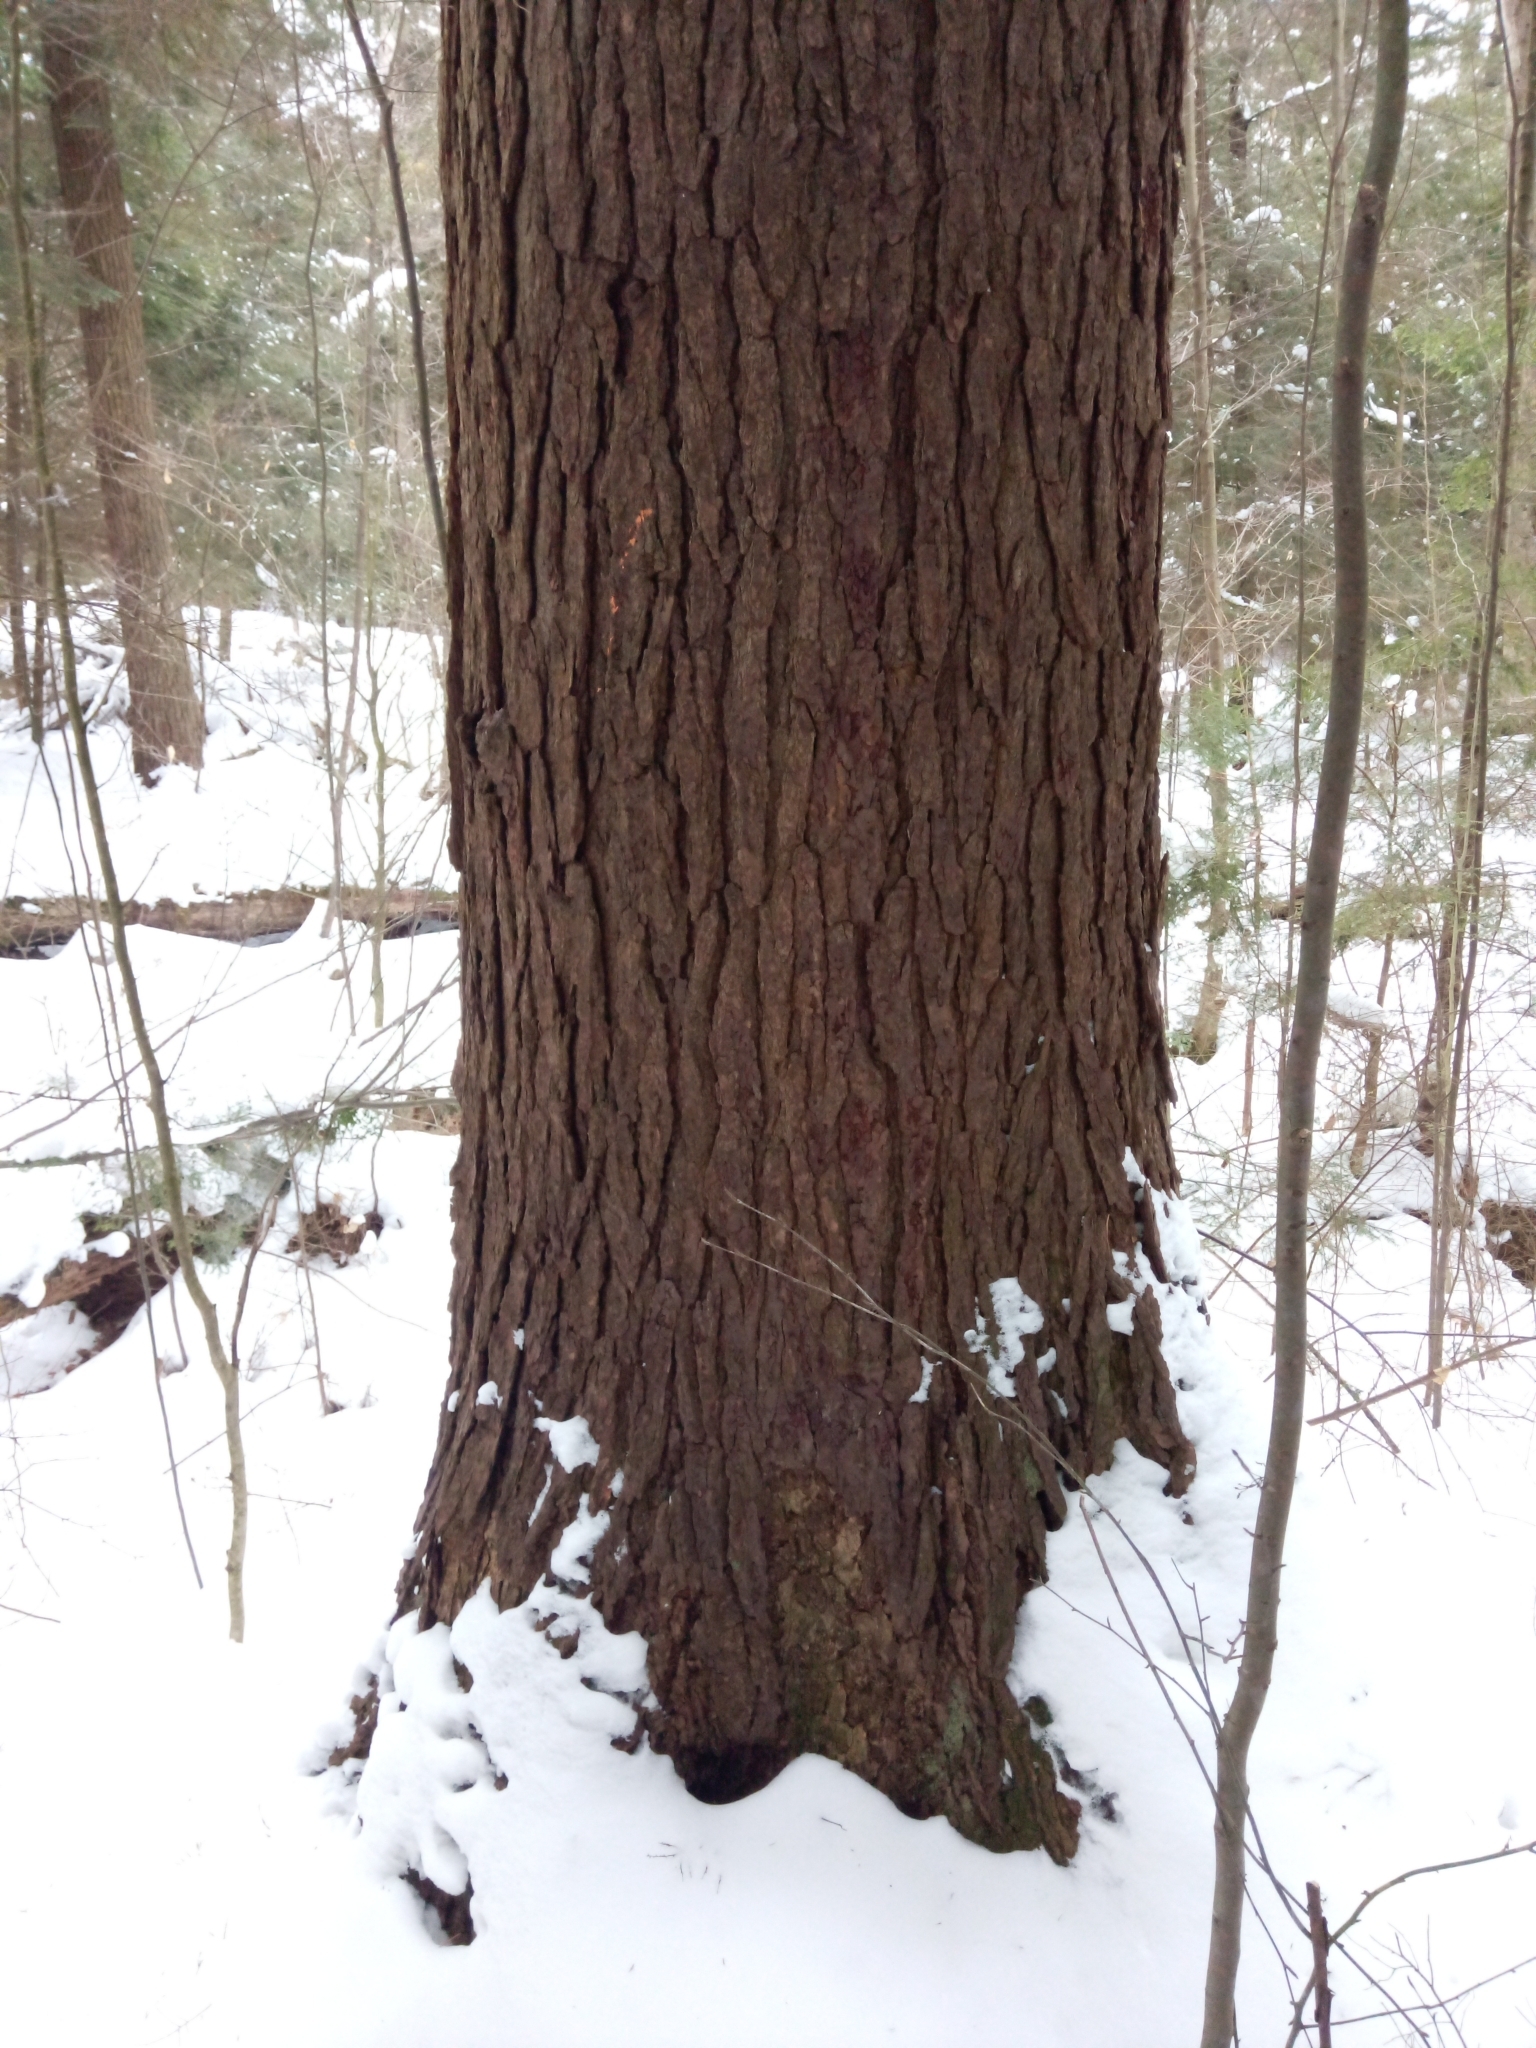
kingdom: Plantae
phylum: Tracheophyta
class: Pinopsida
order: Pinales
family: Pinaceae
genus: Tsuga
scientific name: Tsuga canadensis
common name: Eastern hemlock
